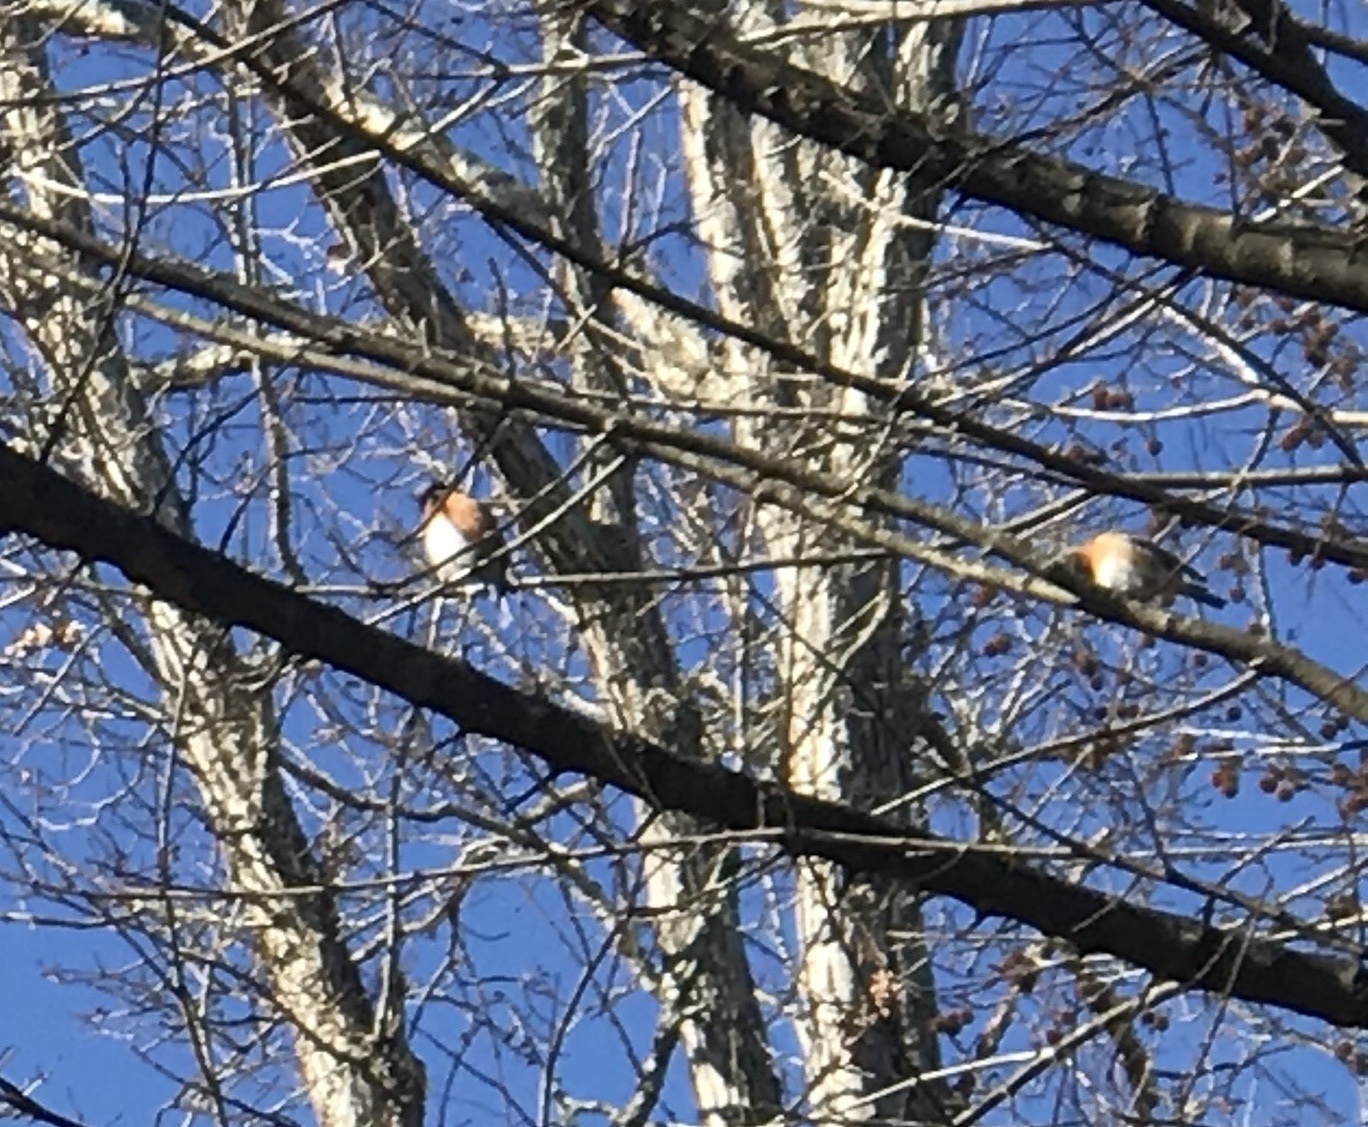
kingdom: Animalia
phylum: Chordata
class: Aves
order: Passeriformes
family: Turdidae
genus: Sialia
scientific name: Sialia sialis
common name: Eastern bluebird
